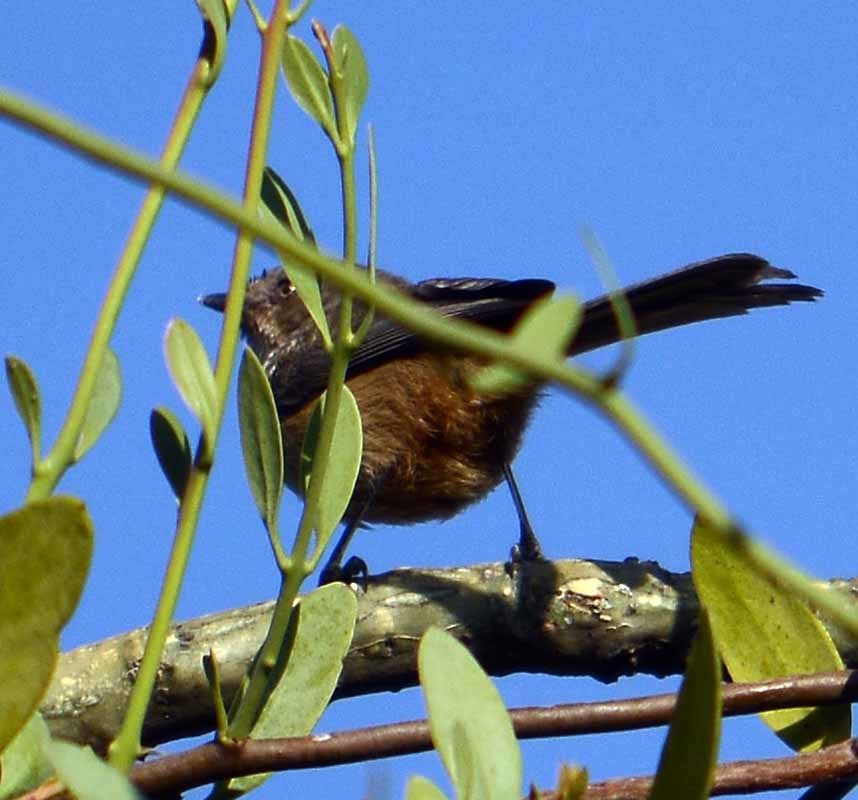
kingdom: Animalia
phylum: Chordata
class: Aves
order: Passeriformes
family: Aegithalidae
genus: Psaltriparus
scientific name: Psaltriparus minimus
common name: American bushtit
